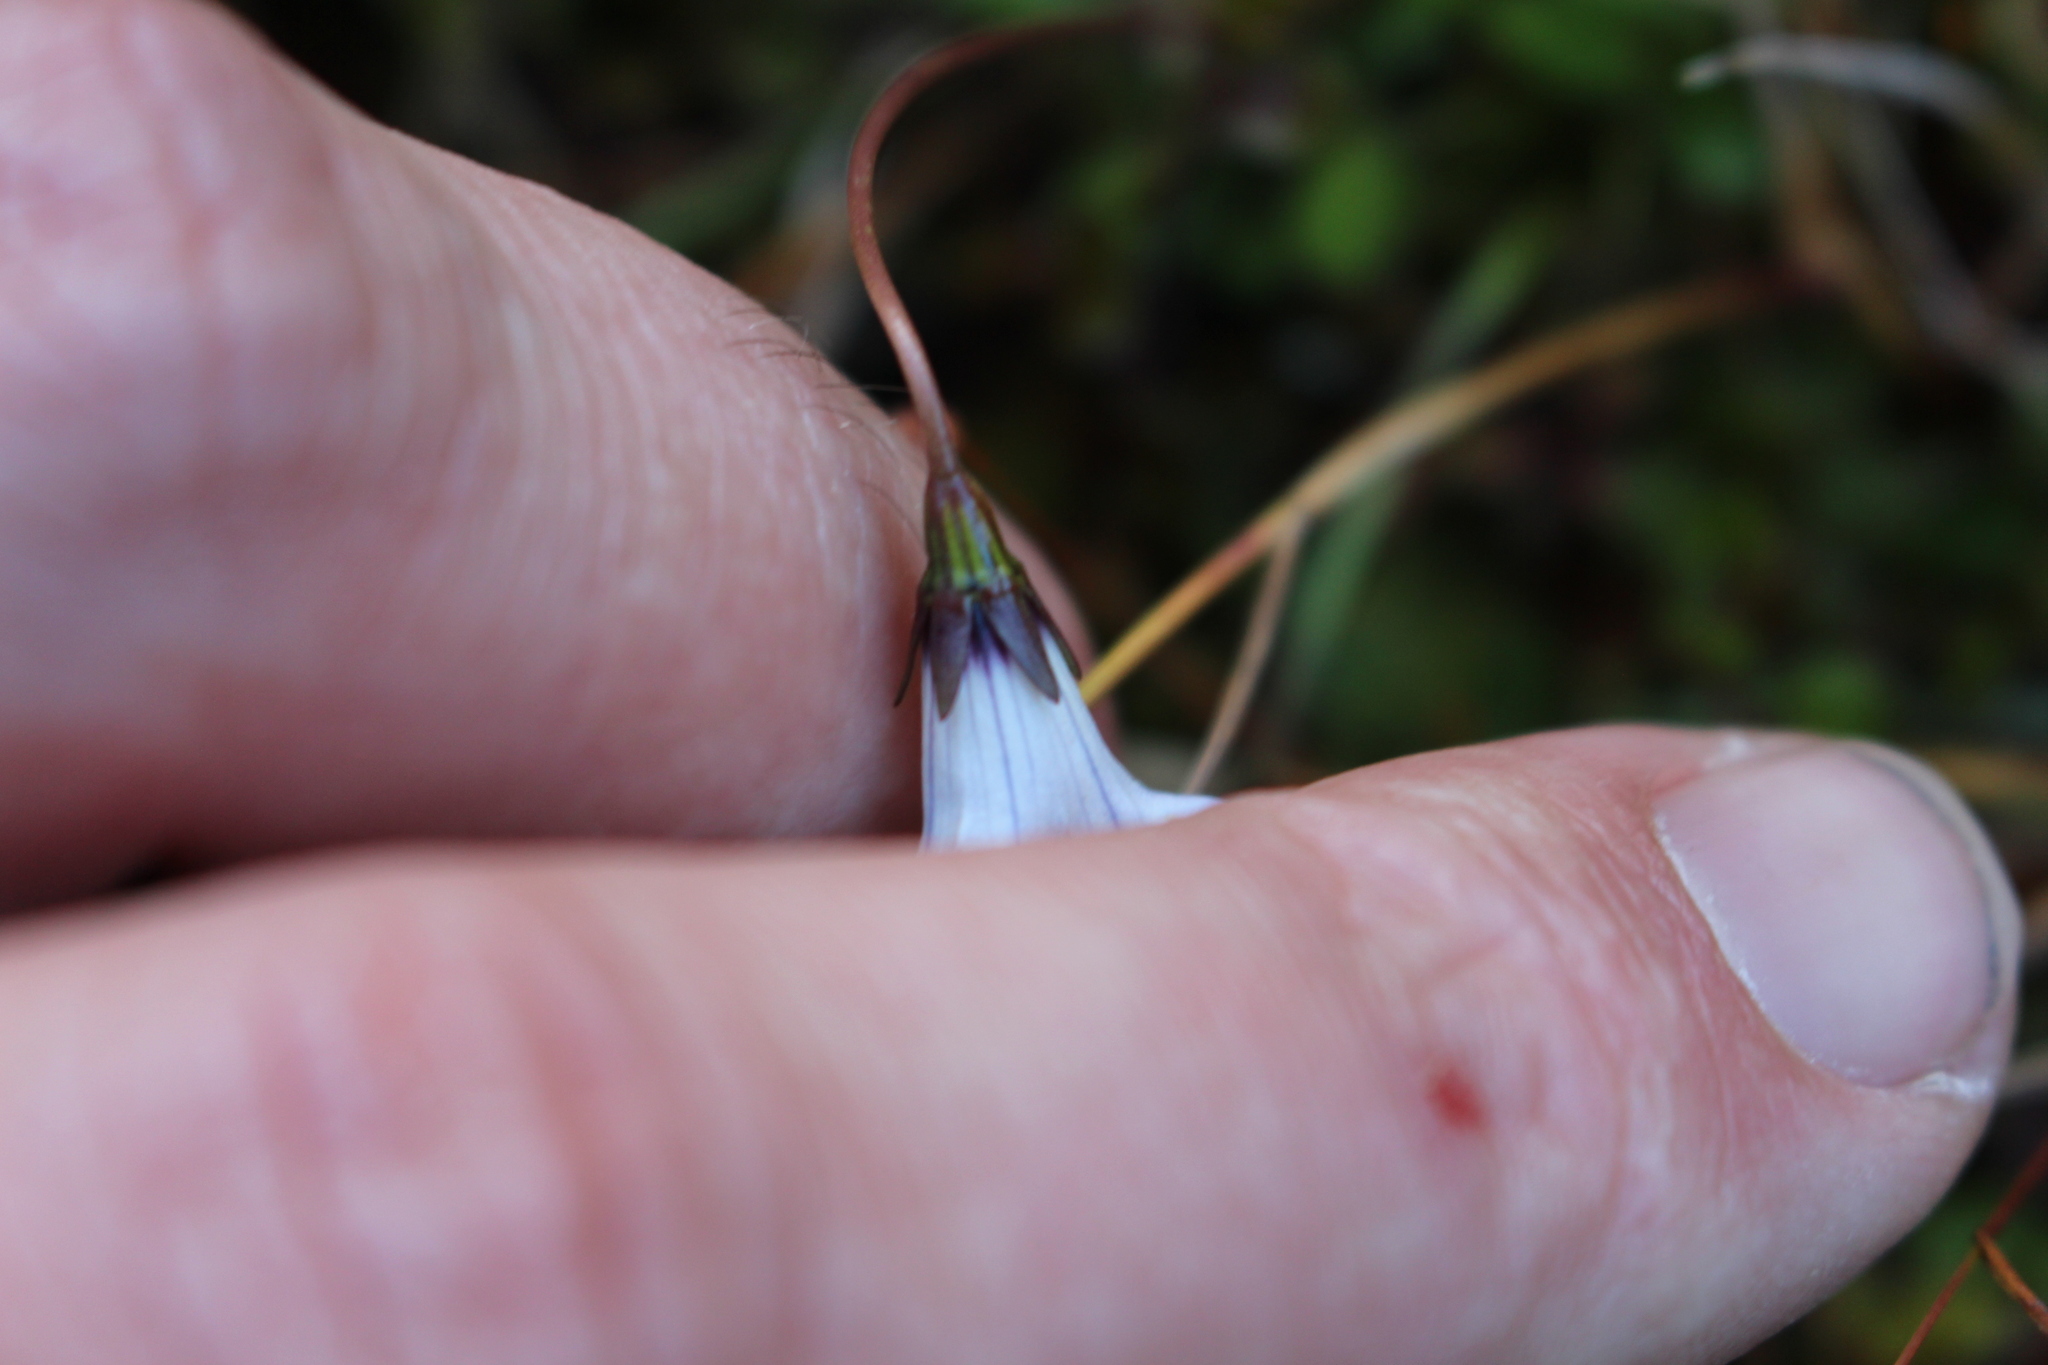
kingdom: Plantae
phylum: Tracheophyta
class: Magnoliopsida
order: Asterales
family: Campanulaceae
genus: Wahlenbergia
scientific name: Wahlenbergia albomarginata
